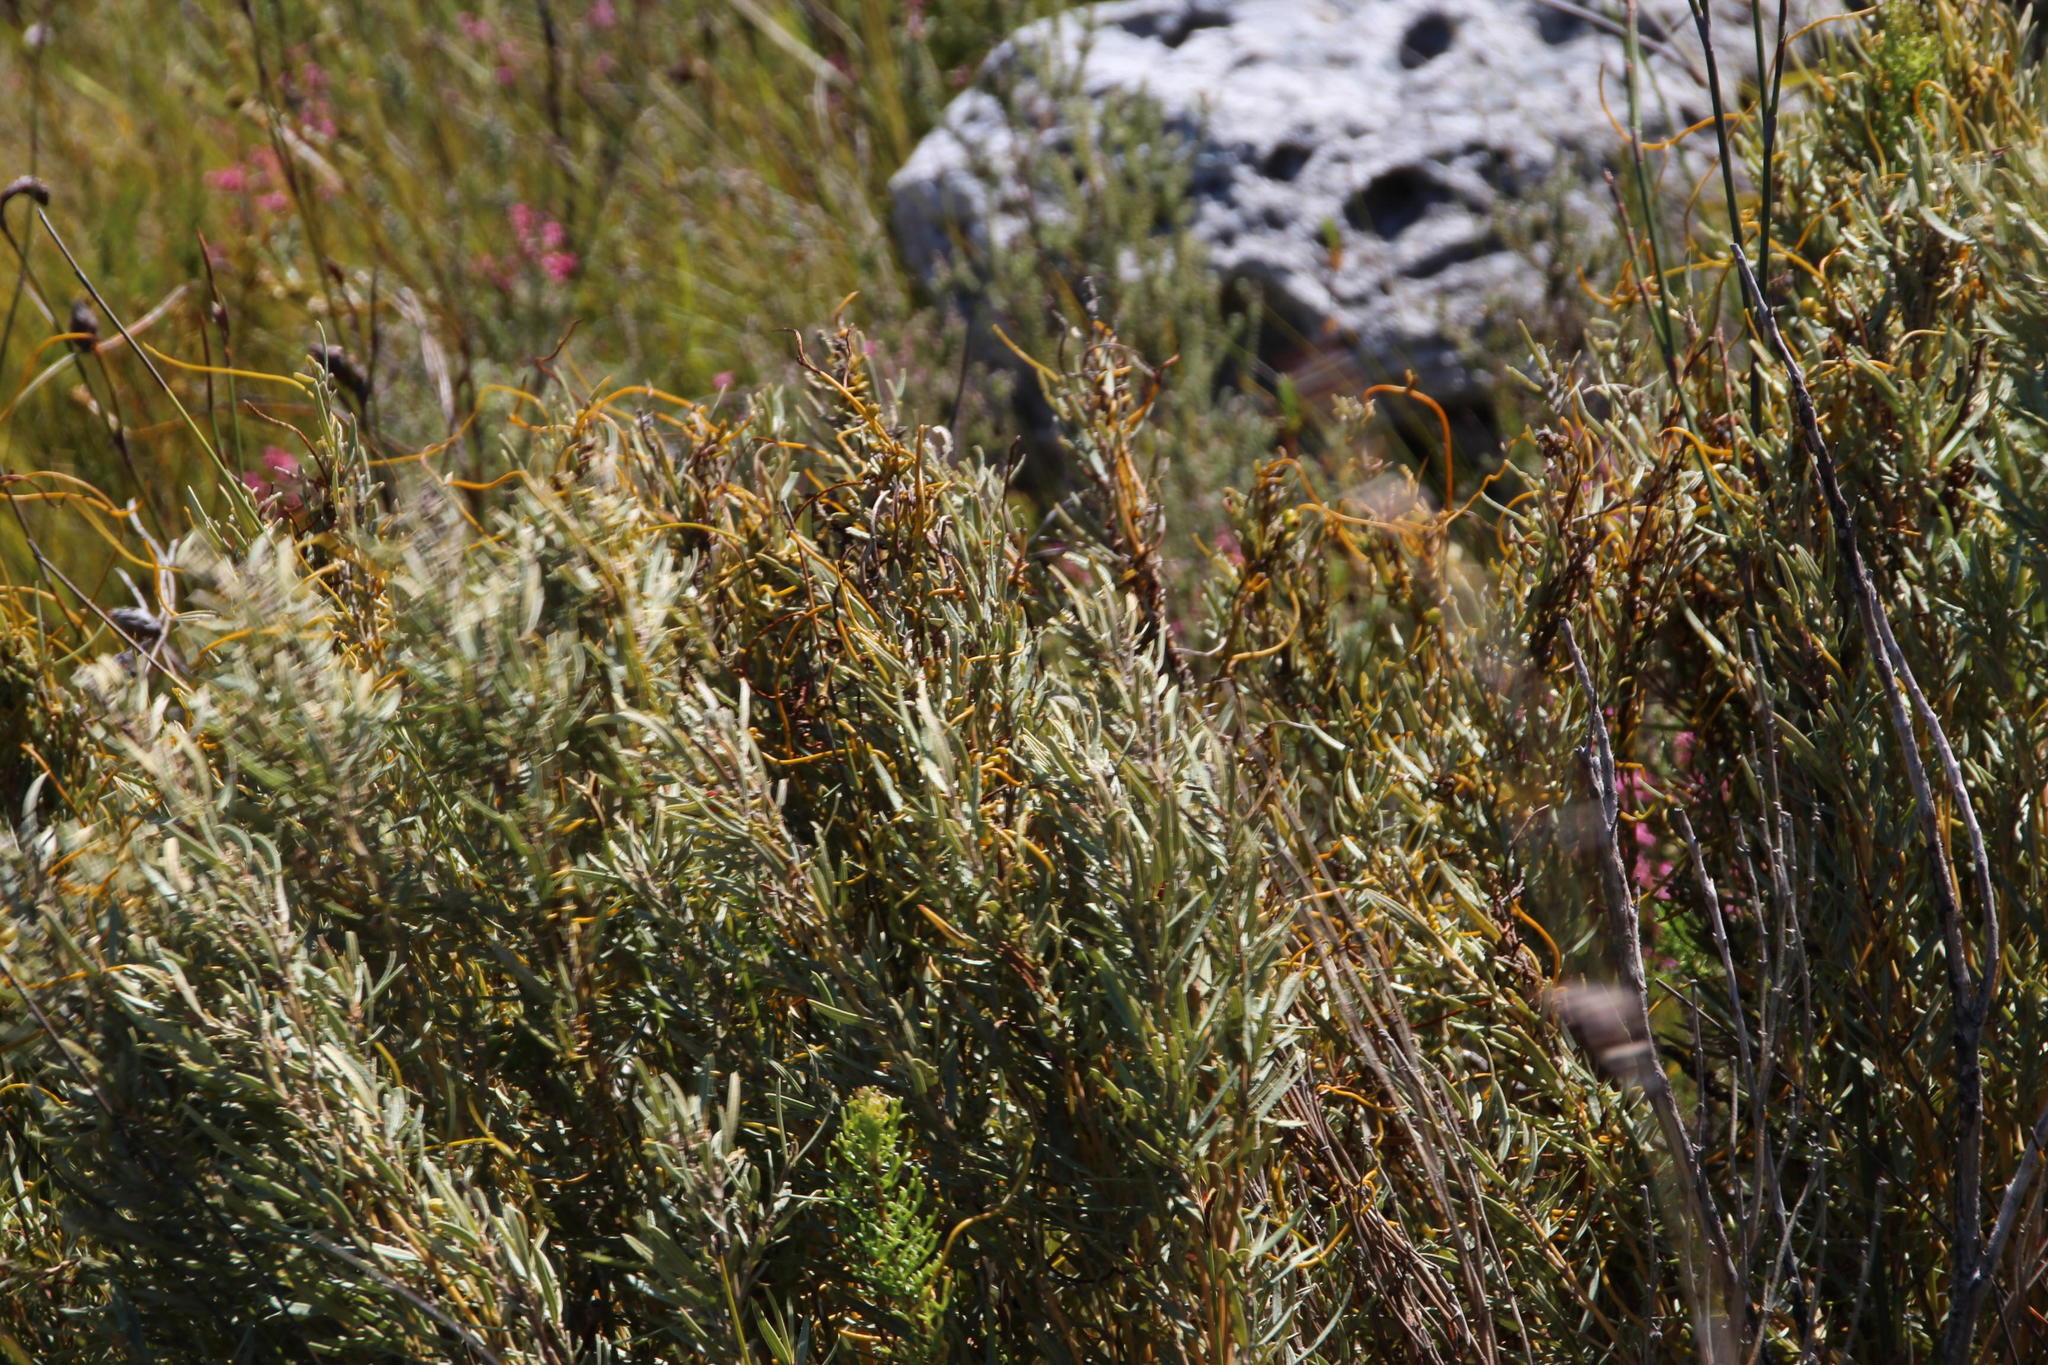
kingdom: Plantae
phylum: Tracheophyta
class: Magnoliopsida
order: Cornales
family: Grubbiaceae
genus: Grubbia
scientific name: Grubbia tomentosa
